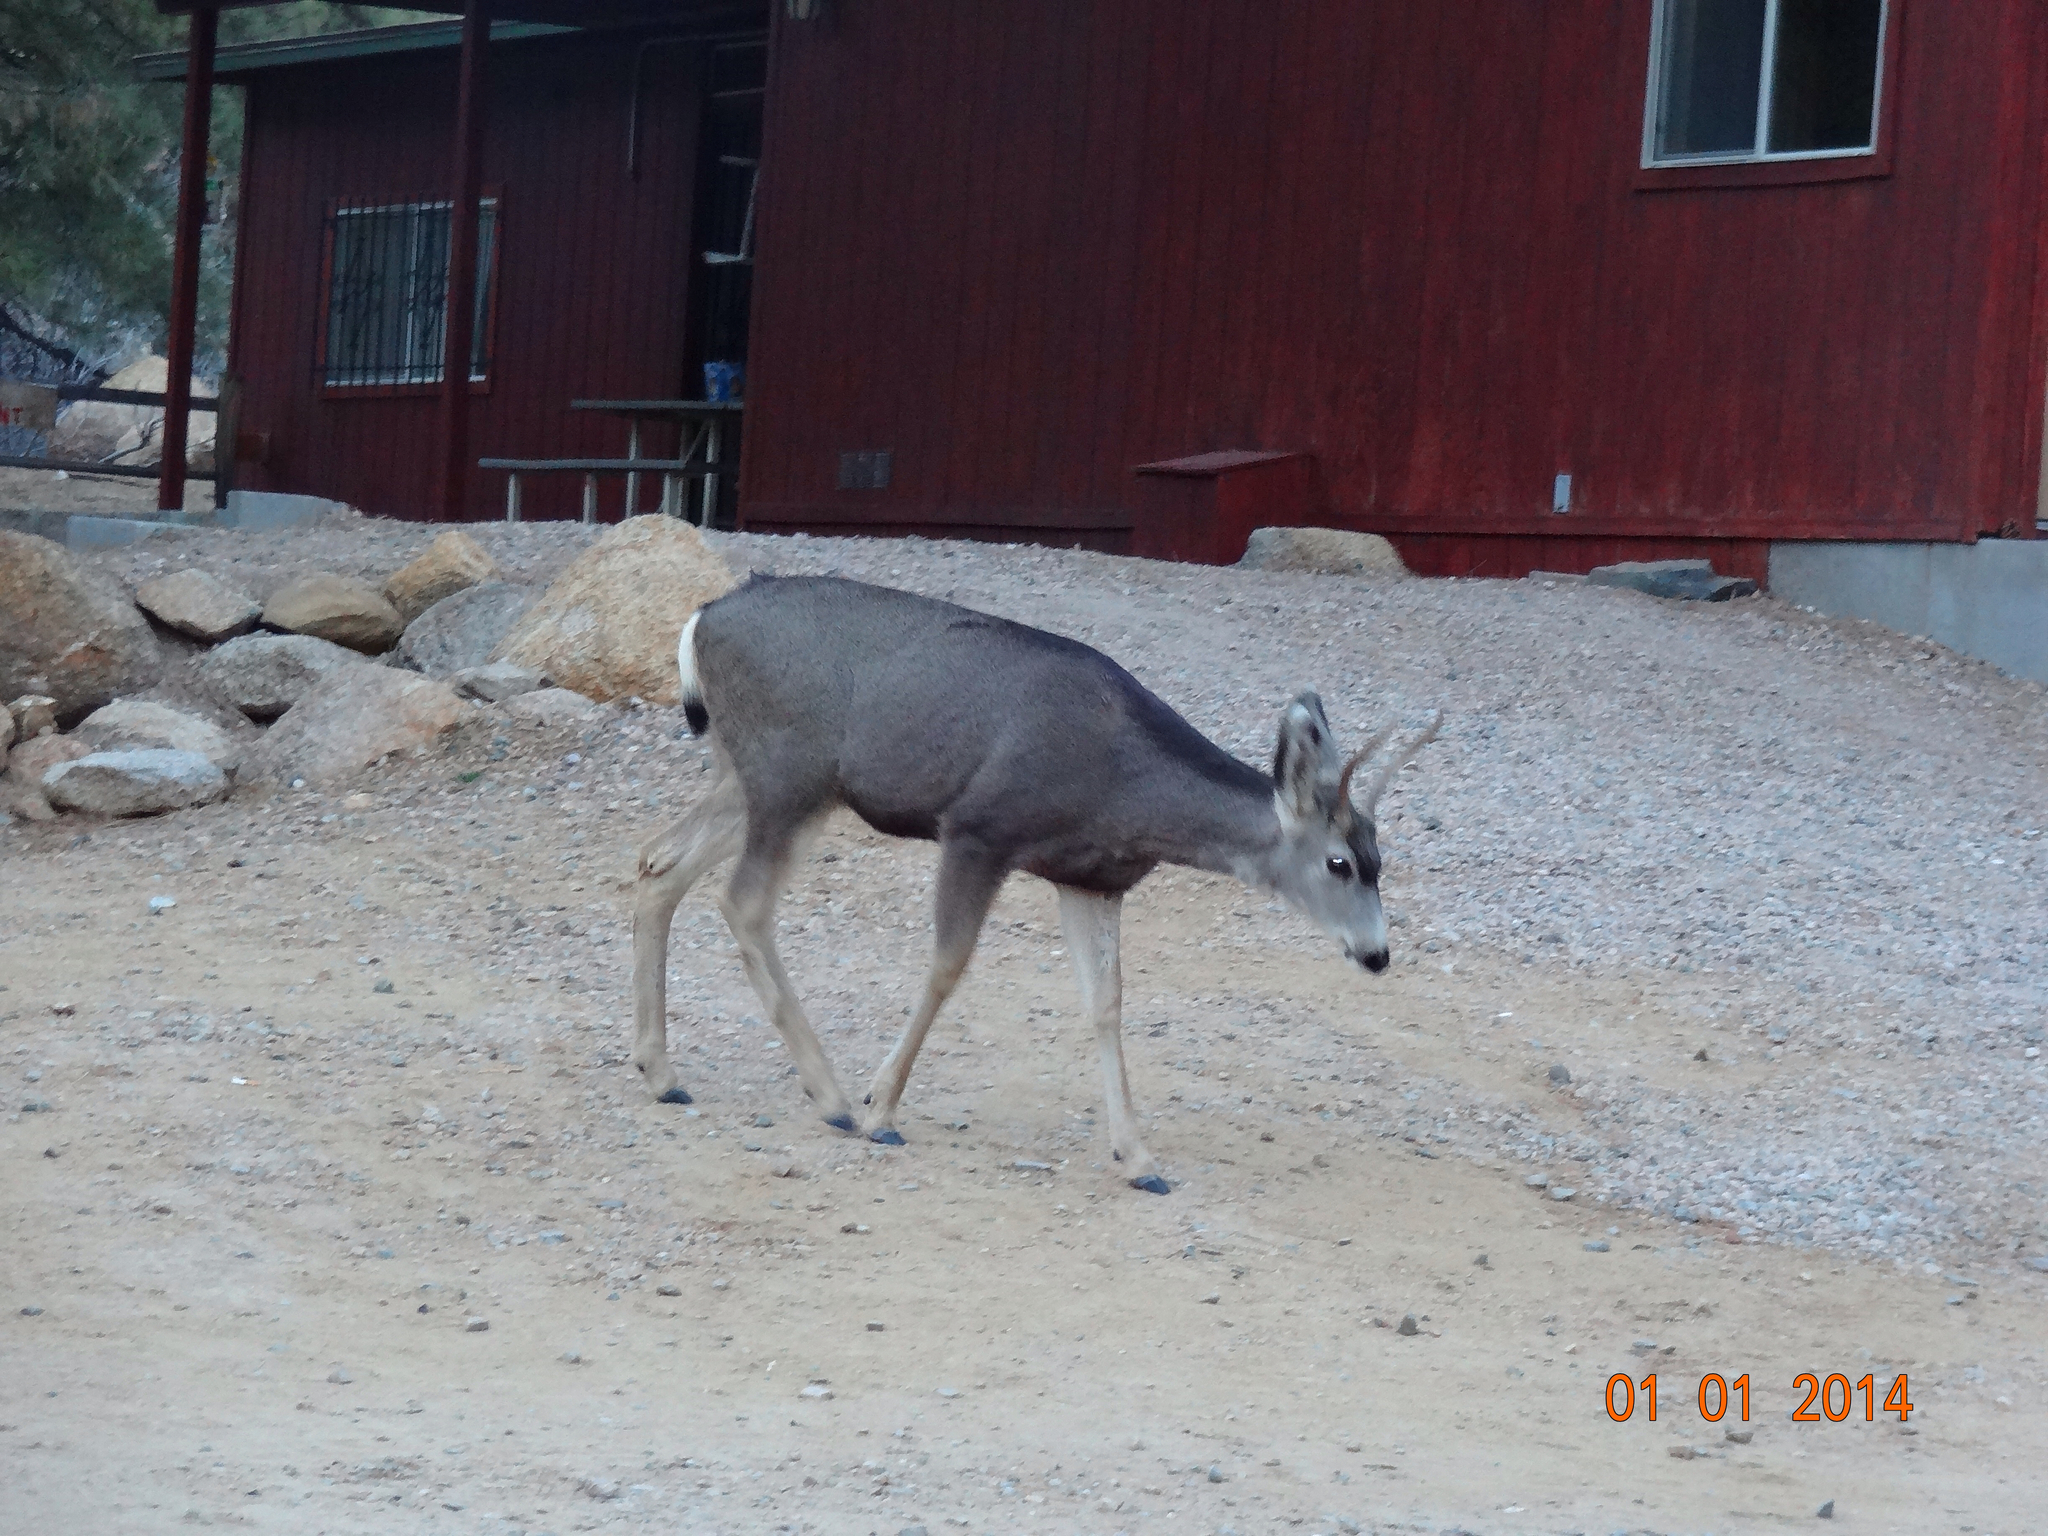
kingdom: Animalia
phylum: Chordata
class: Mammalia
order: Artiodactyla
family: Cervidae
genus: Odocoileus
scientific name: Odocoileus hemionus
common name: Mule deer
